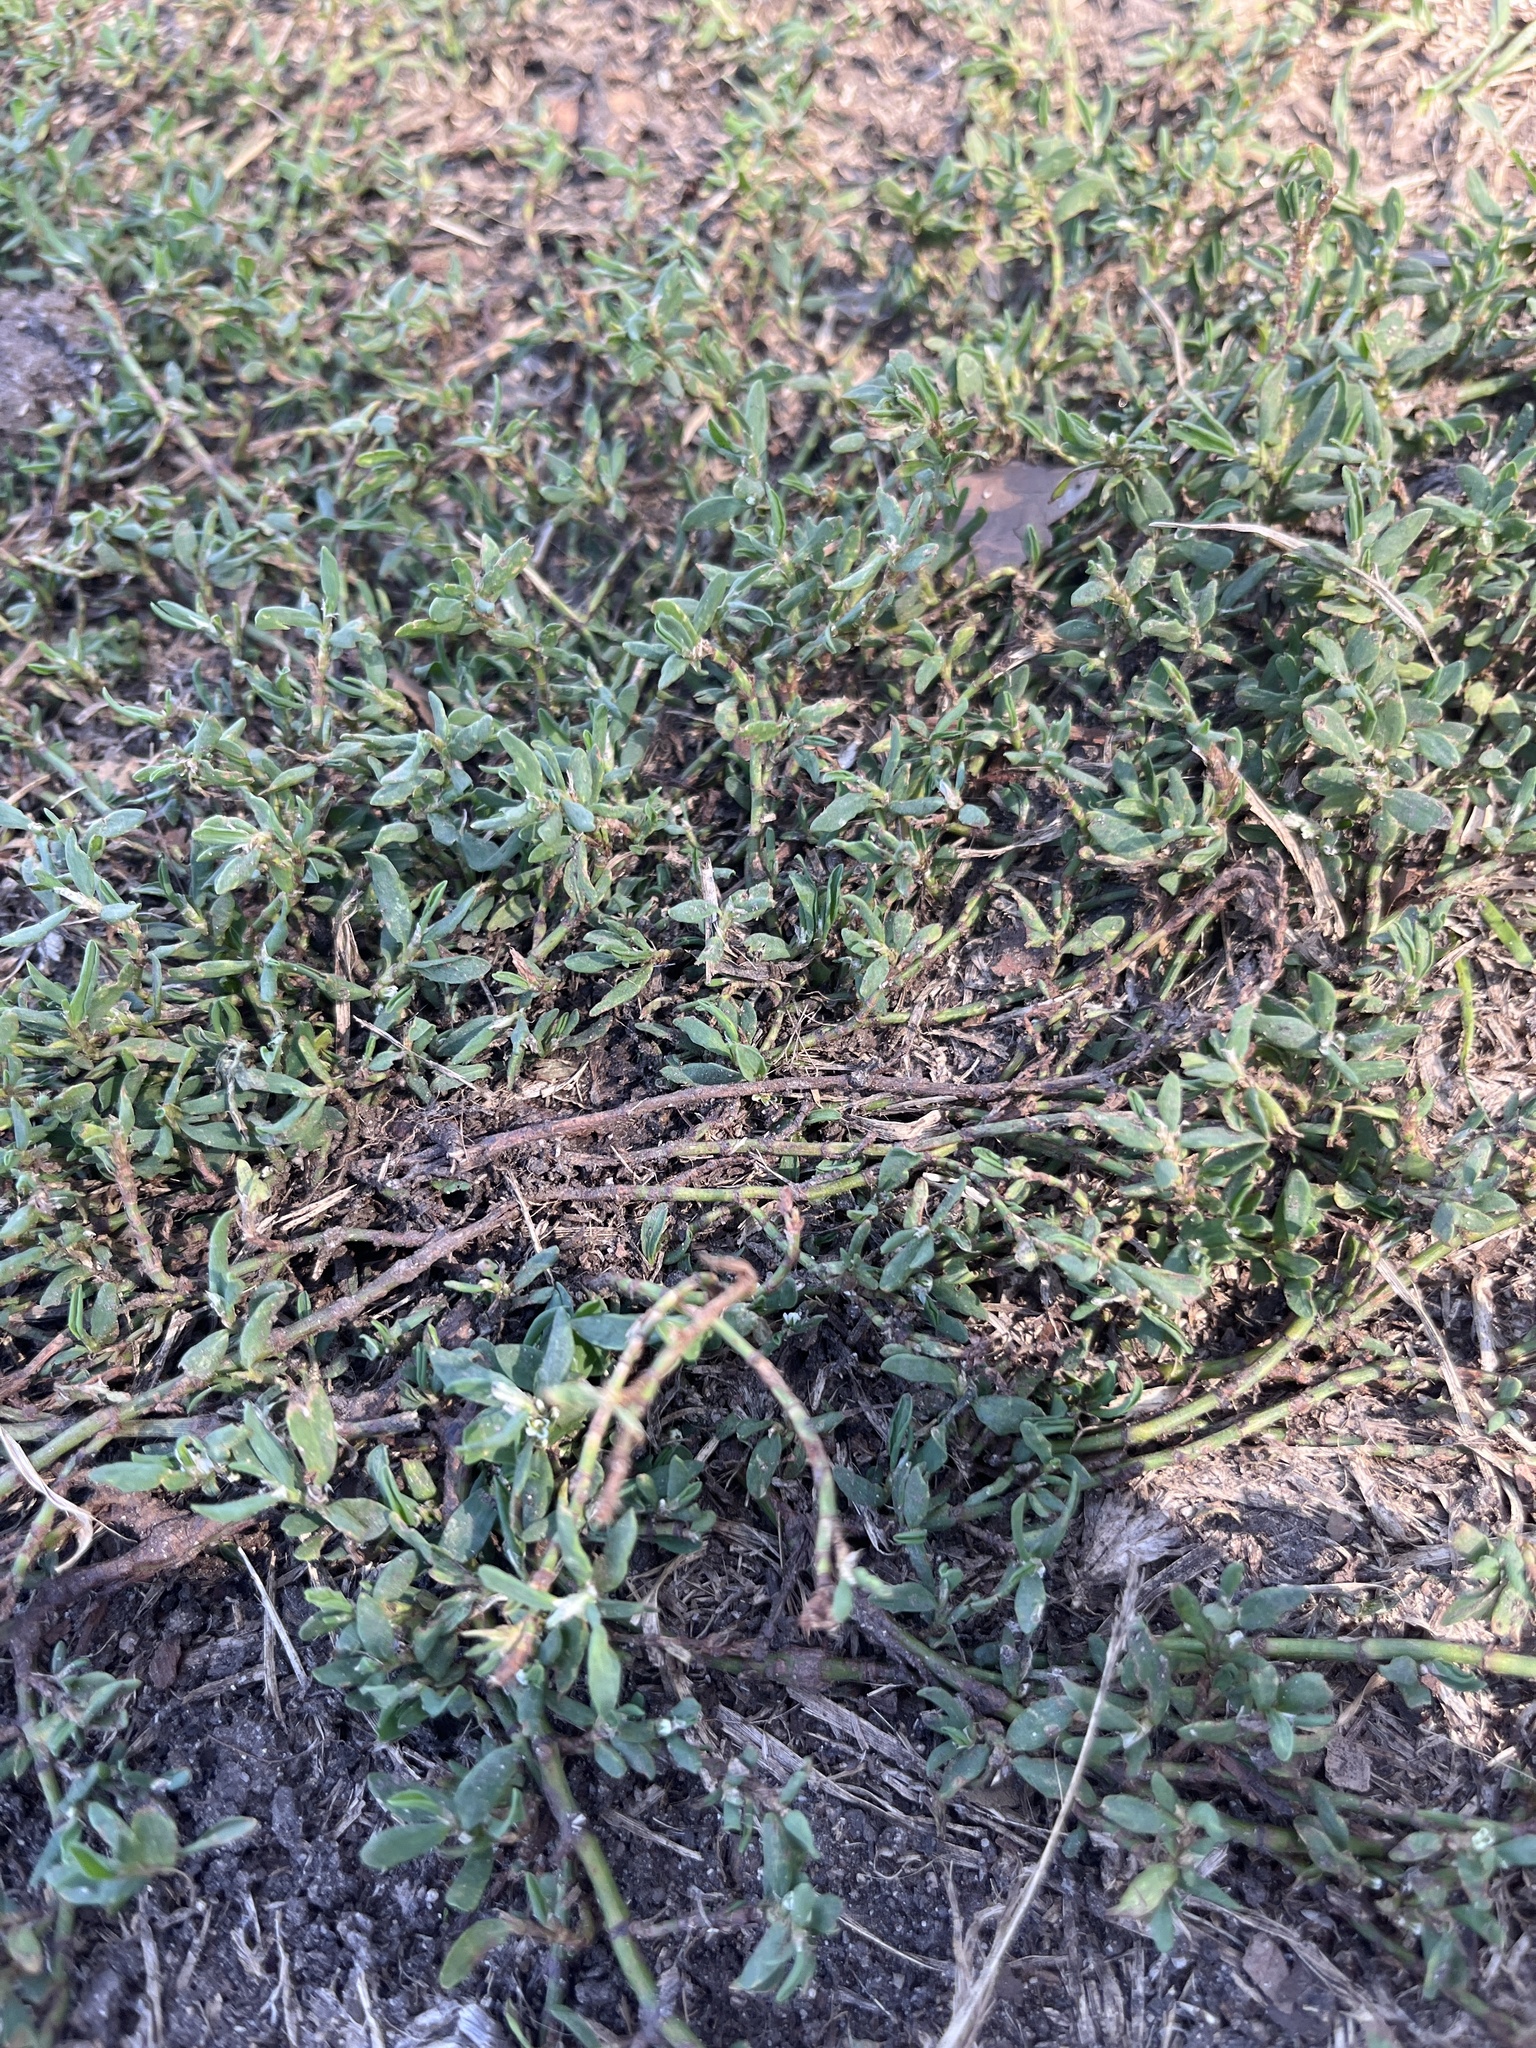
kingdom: Plantae
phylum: Tracheophyta
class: Magnoliopsida
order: Caryophyllales
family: Polygonaceae
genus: Polygonum
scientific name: Polygonum aviculare
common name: Prostrate knotweed
